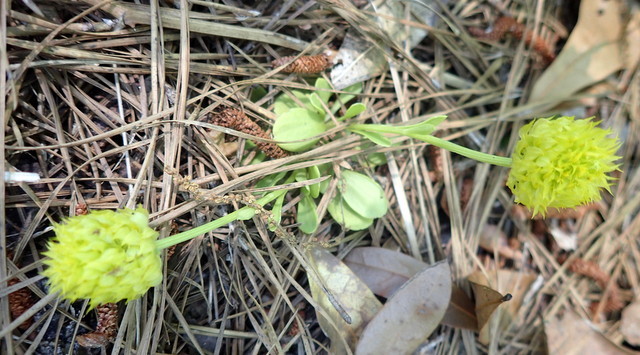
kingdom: Plantae
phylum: Tracheophyta
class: Magnoliopsida
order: Fabales
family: Polygalaceae
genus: Polygala
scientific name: Polygala nana
